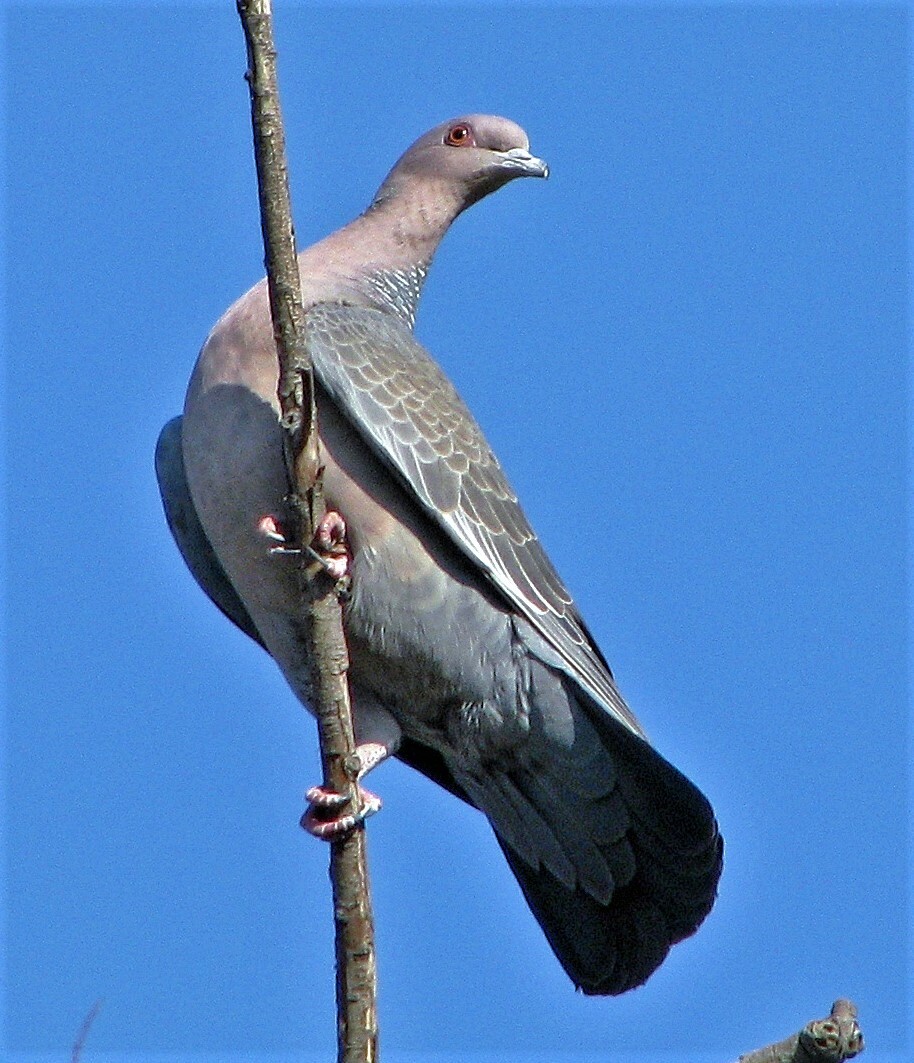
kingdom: Animalia
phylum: Chordata
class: Aves
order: Columbiformes
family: Columbidae
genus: Patagioenas
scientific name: Patagioenas picazuro
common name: Picazuro pigeon
